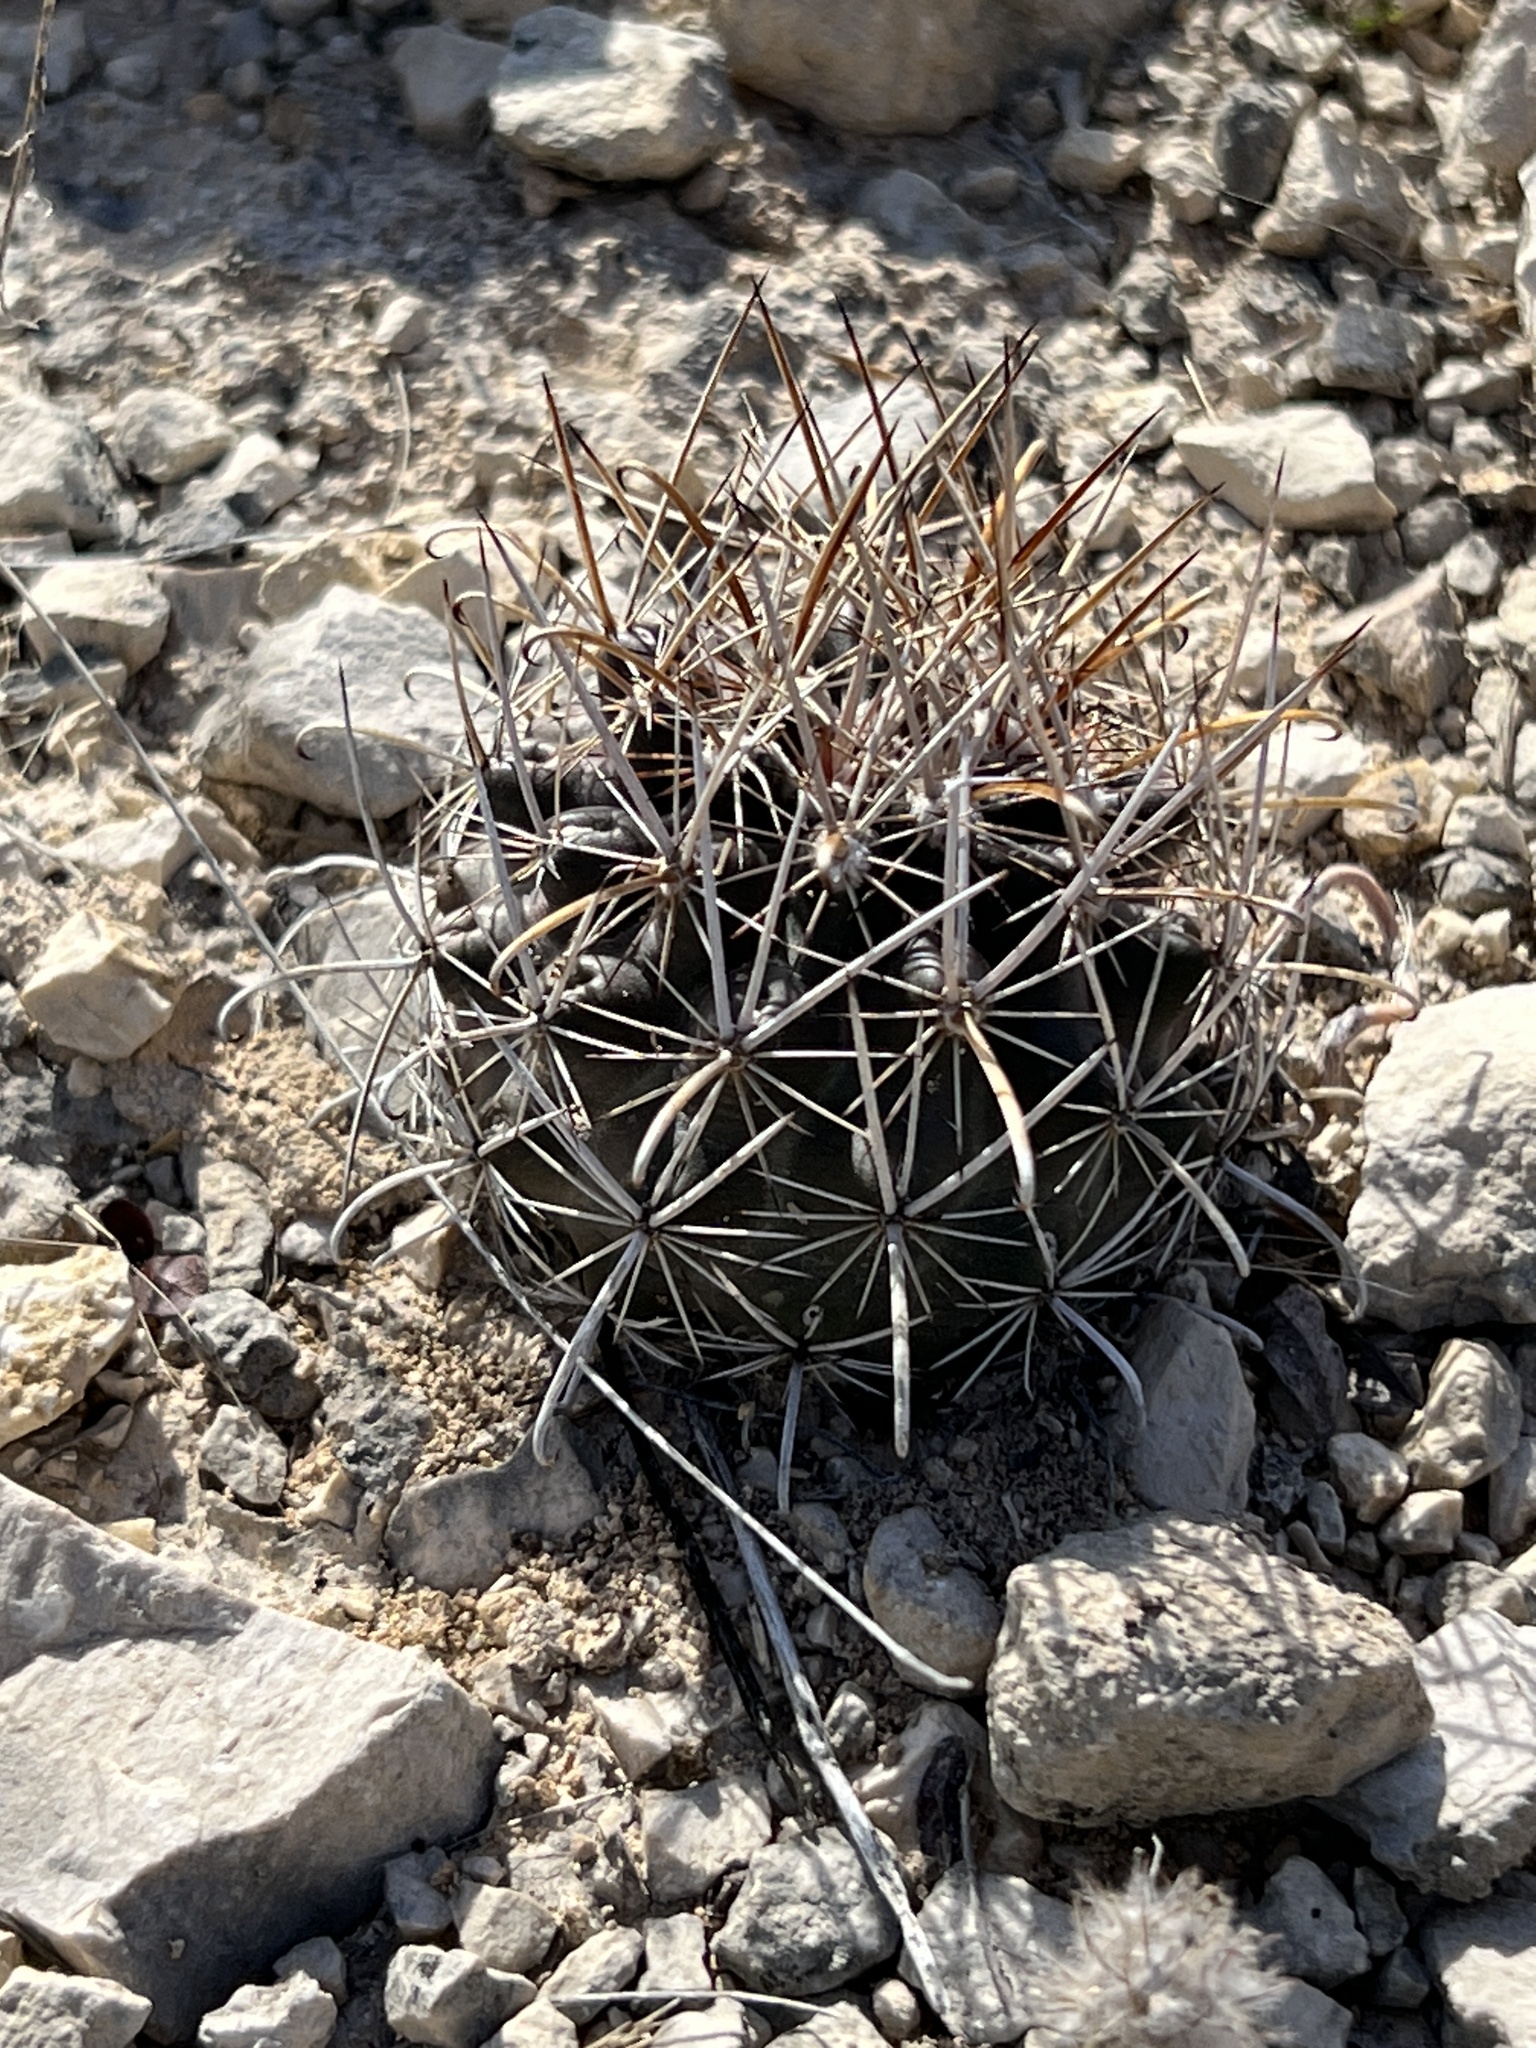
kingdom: Plantae
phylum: Tracheophyta
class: Magnoliopsida
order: Caryophyllales
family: Cactaceae
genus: Sclerocactus
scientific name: Sclerocactus brevihamatus
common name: Engelmann's fishhook cactus
